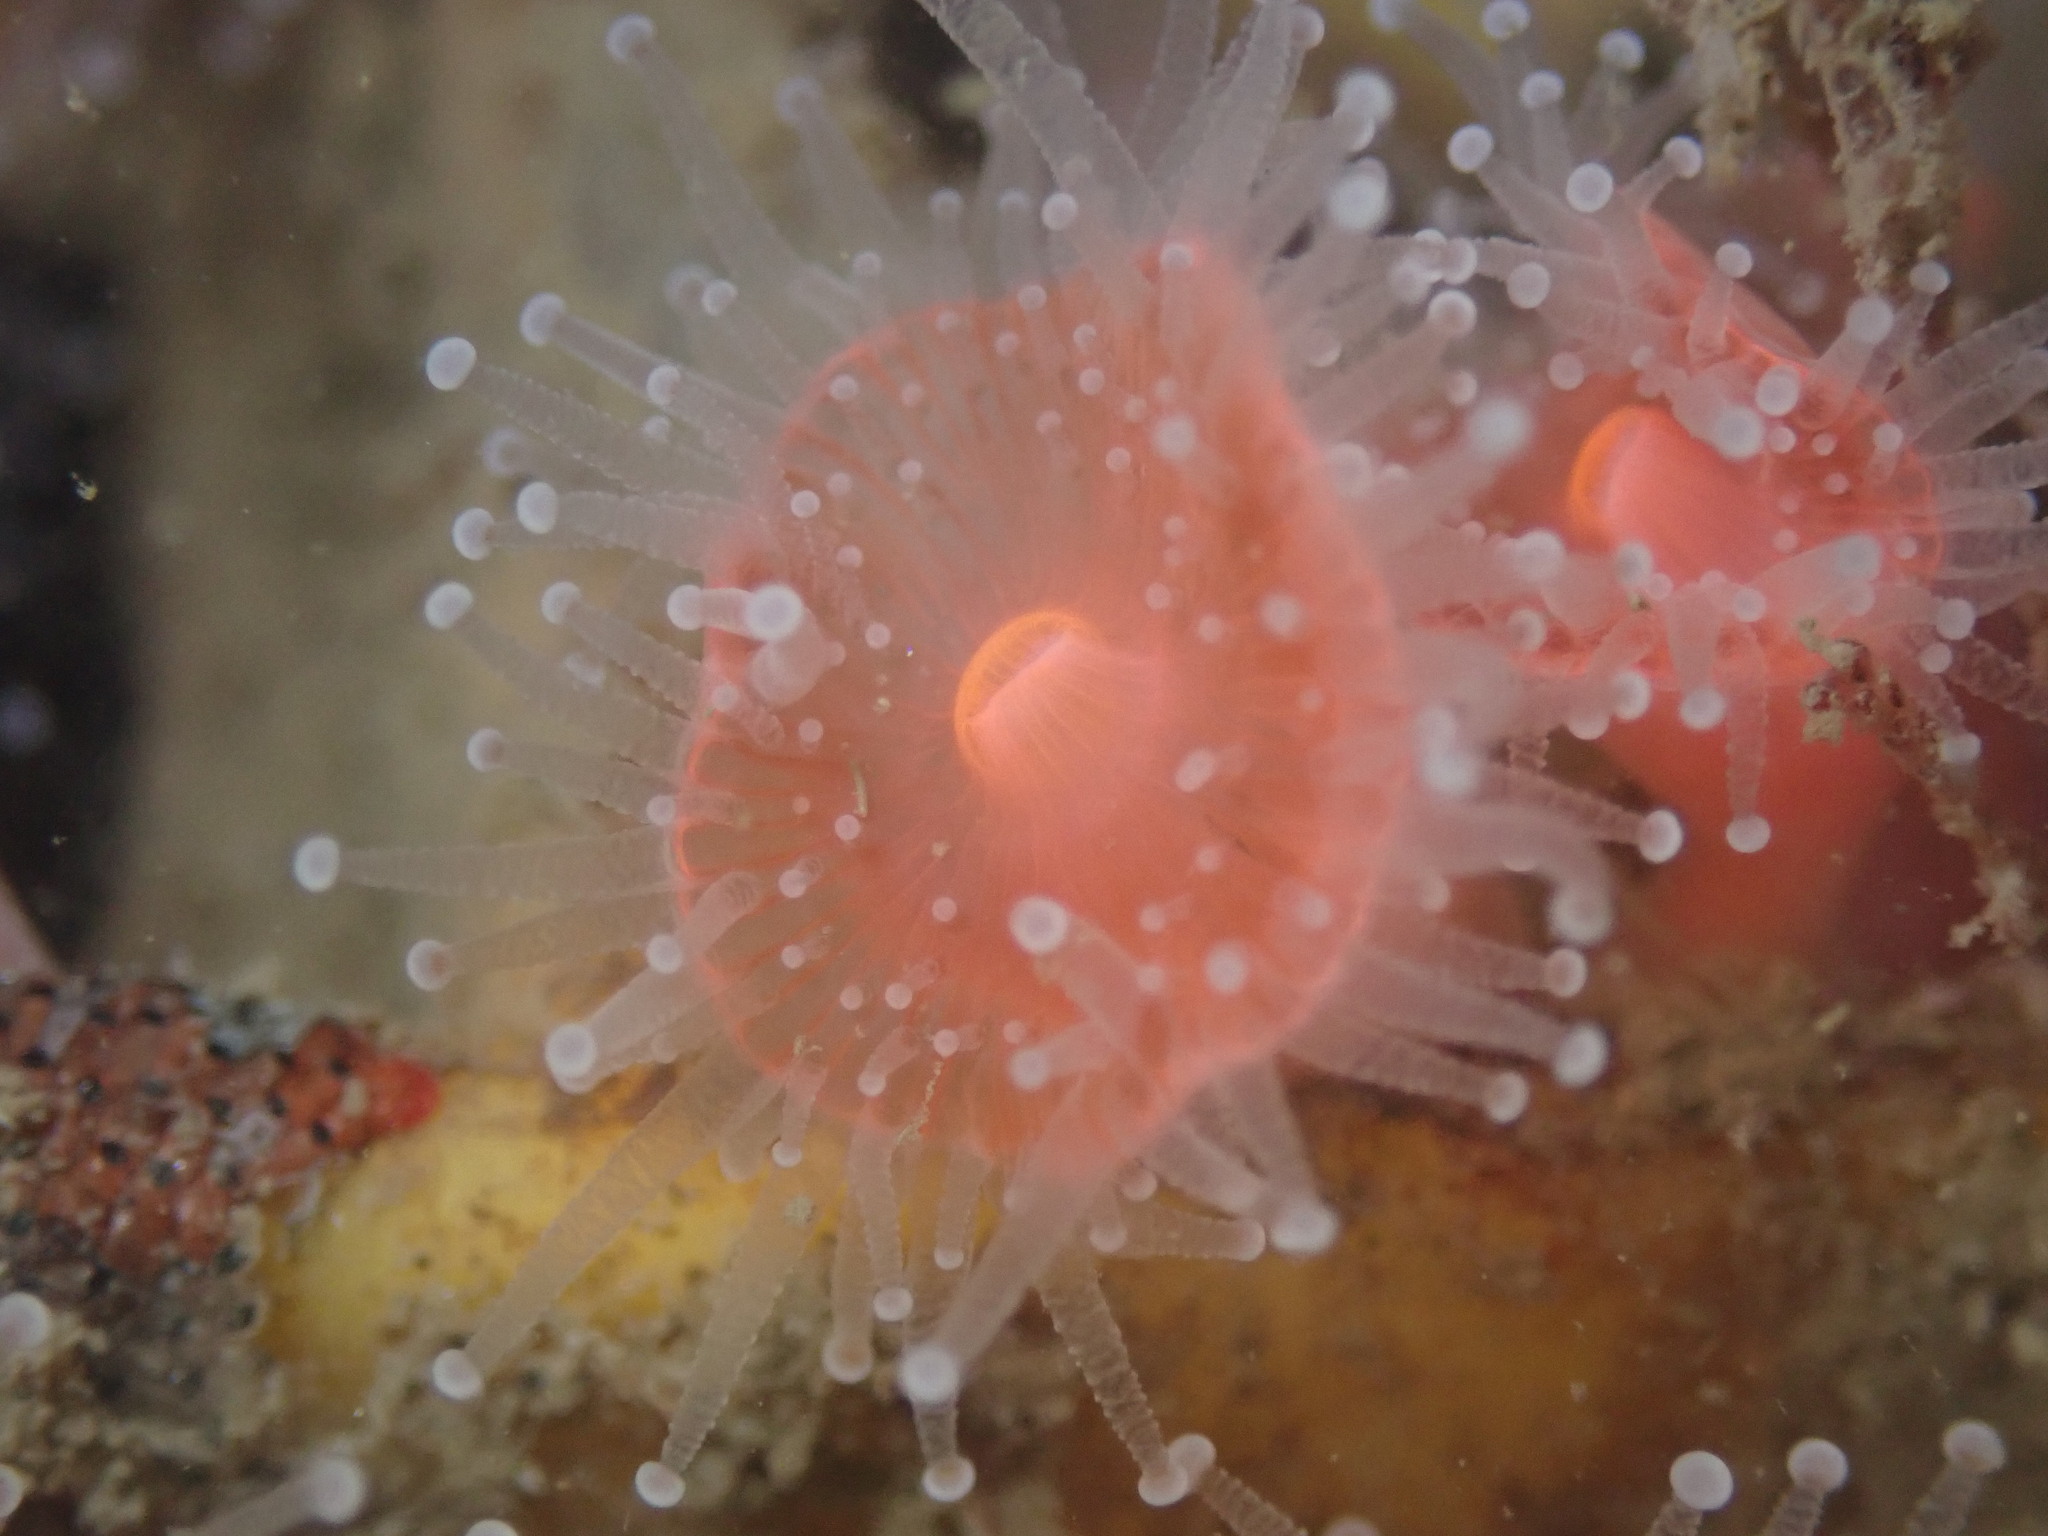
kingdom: Animalia
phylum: Cnidaria
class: Anthozoa
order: Corallimorpharia
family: Corallimorphidae
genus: Corynactis
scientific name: Corynactis californica
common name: Strawberry corallimorpharian
